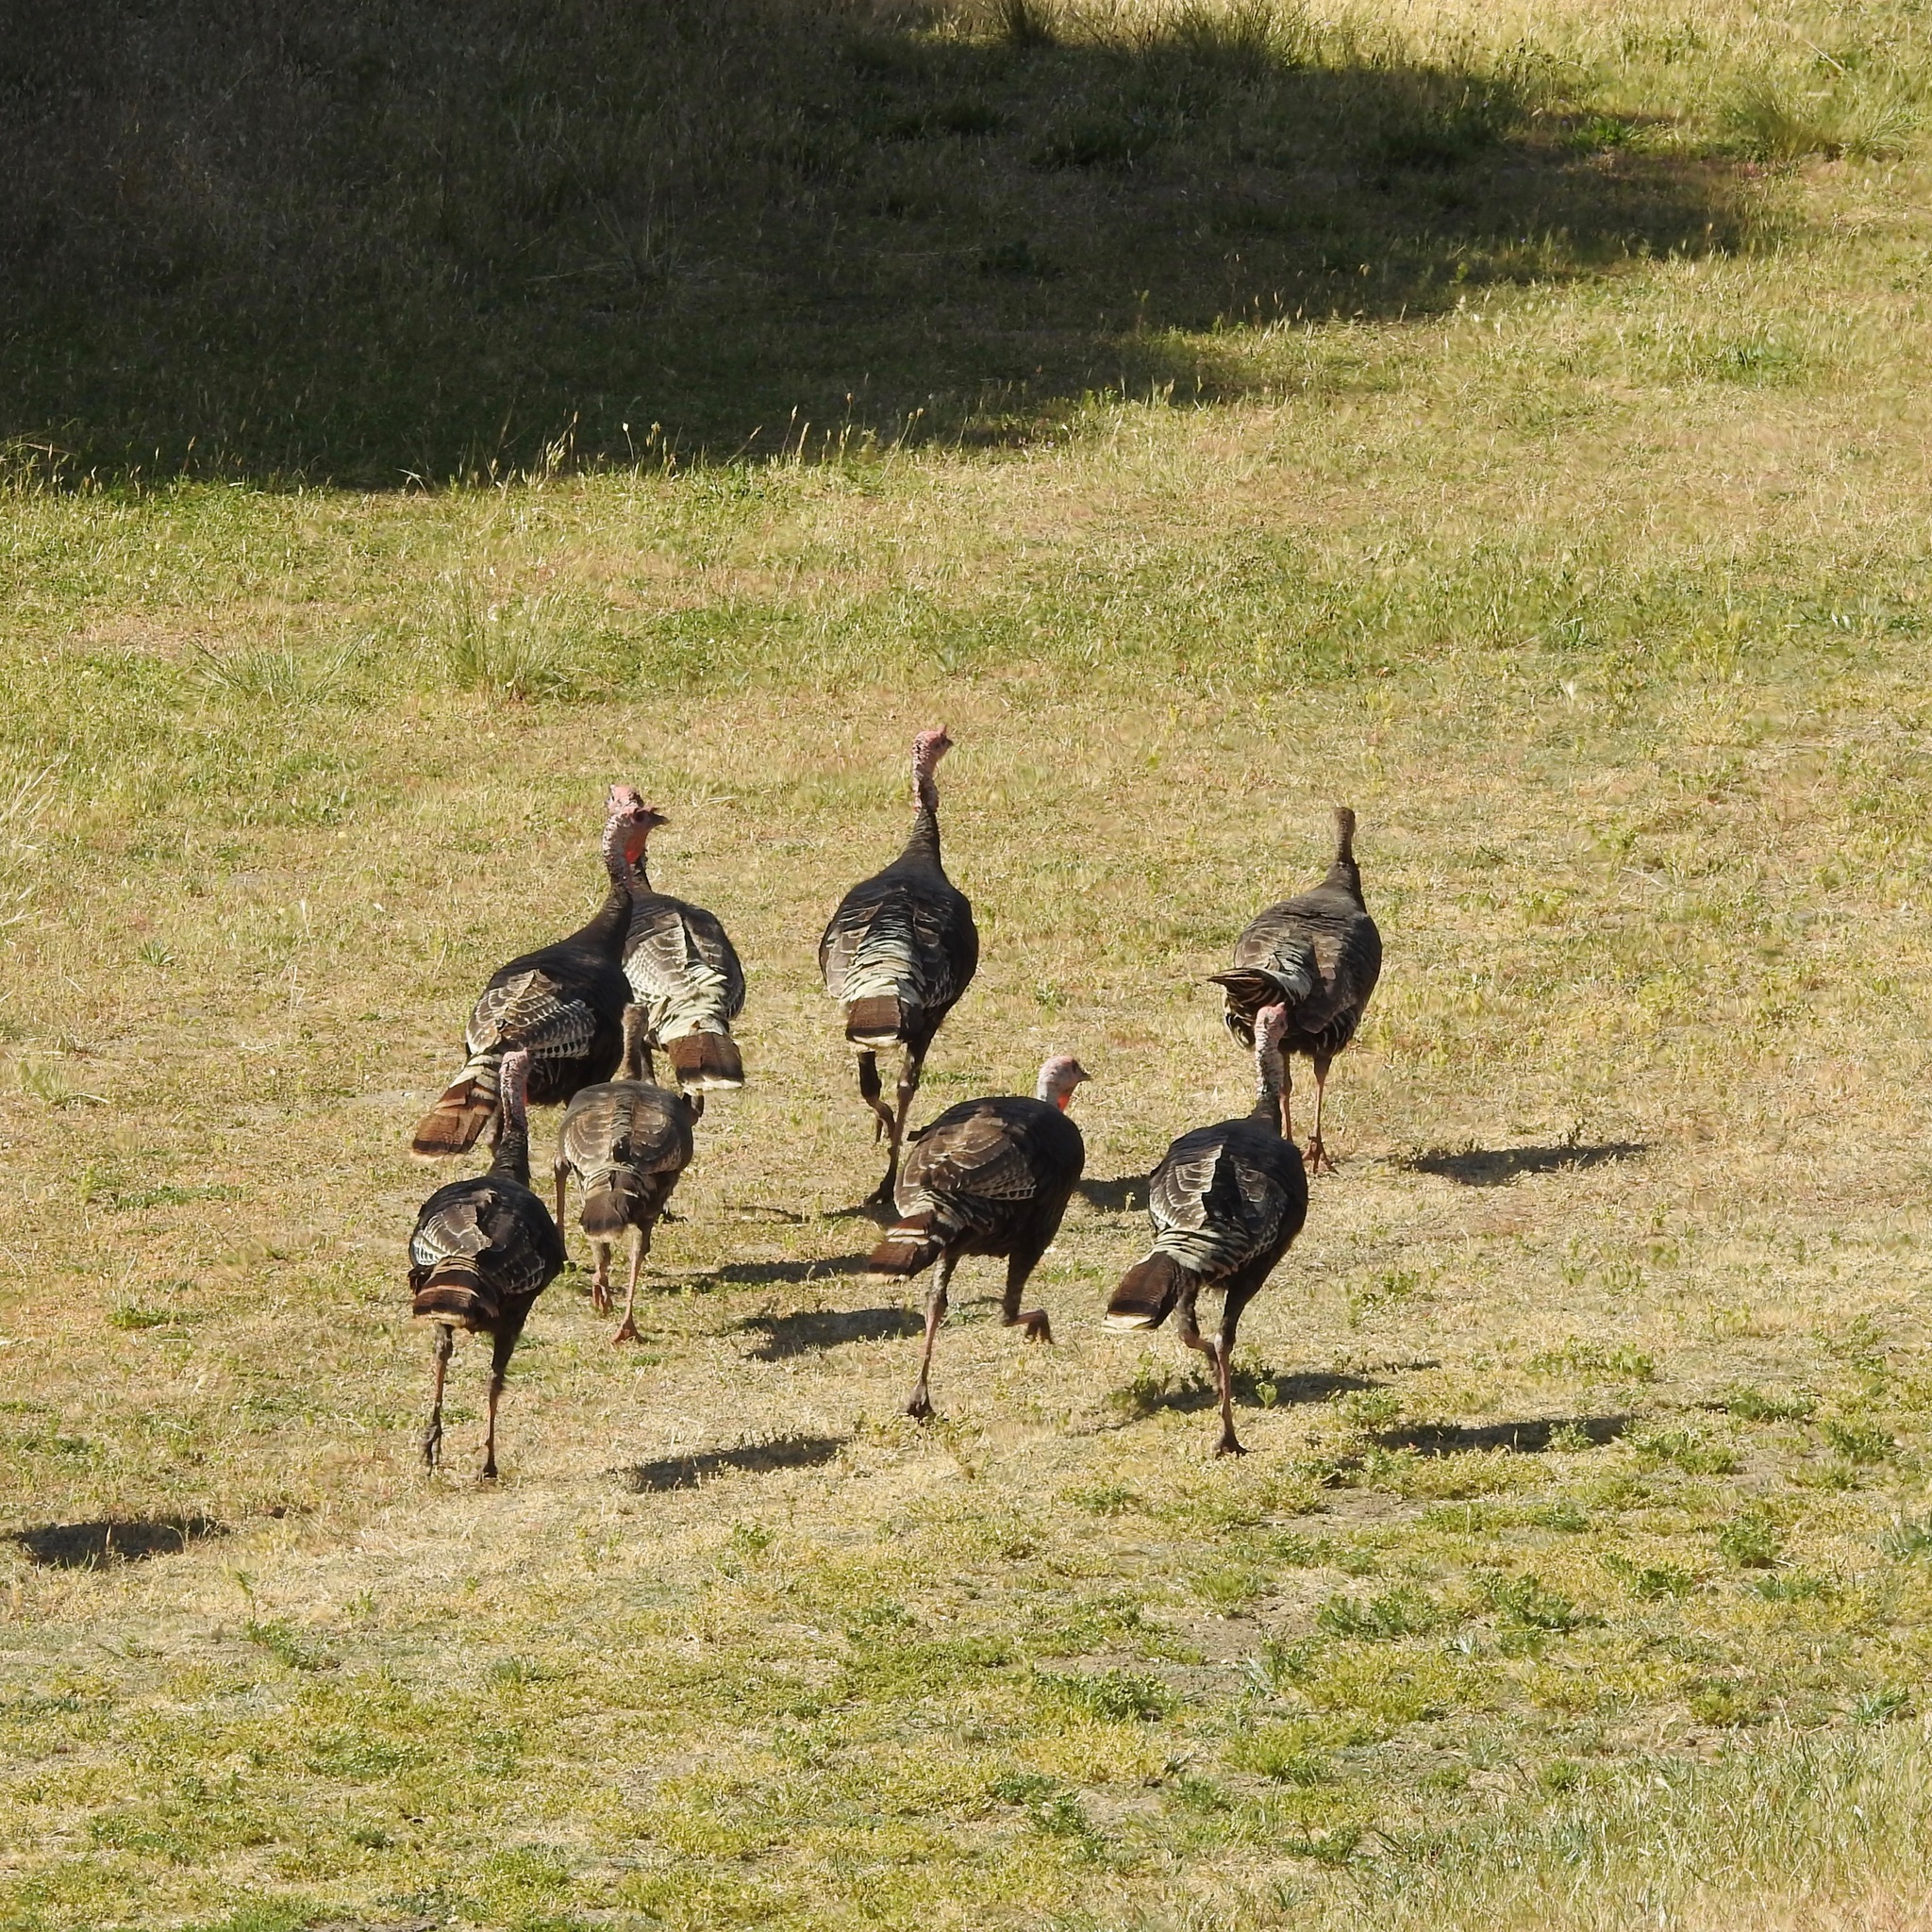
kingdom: Animalia
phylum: Chordata
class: Aves
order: Galliformes
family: Phasianidae
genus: Meleagris
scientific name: Meleagris gallopavo
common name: Wild turkey
